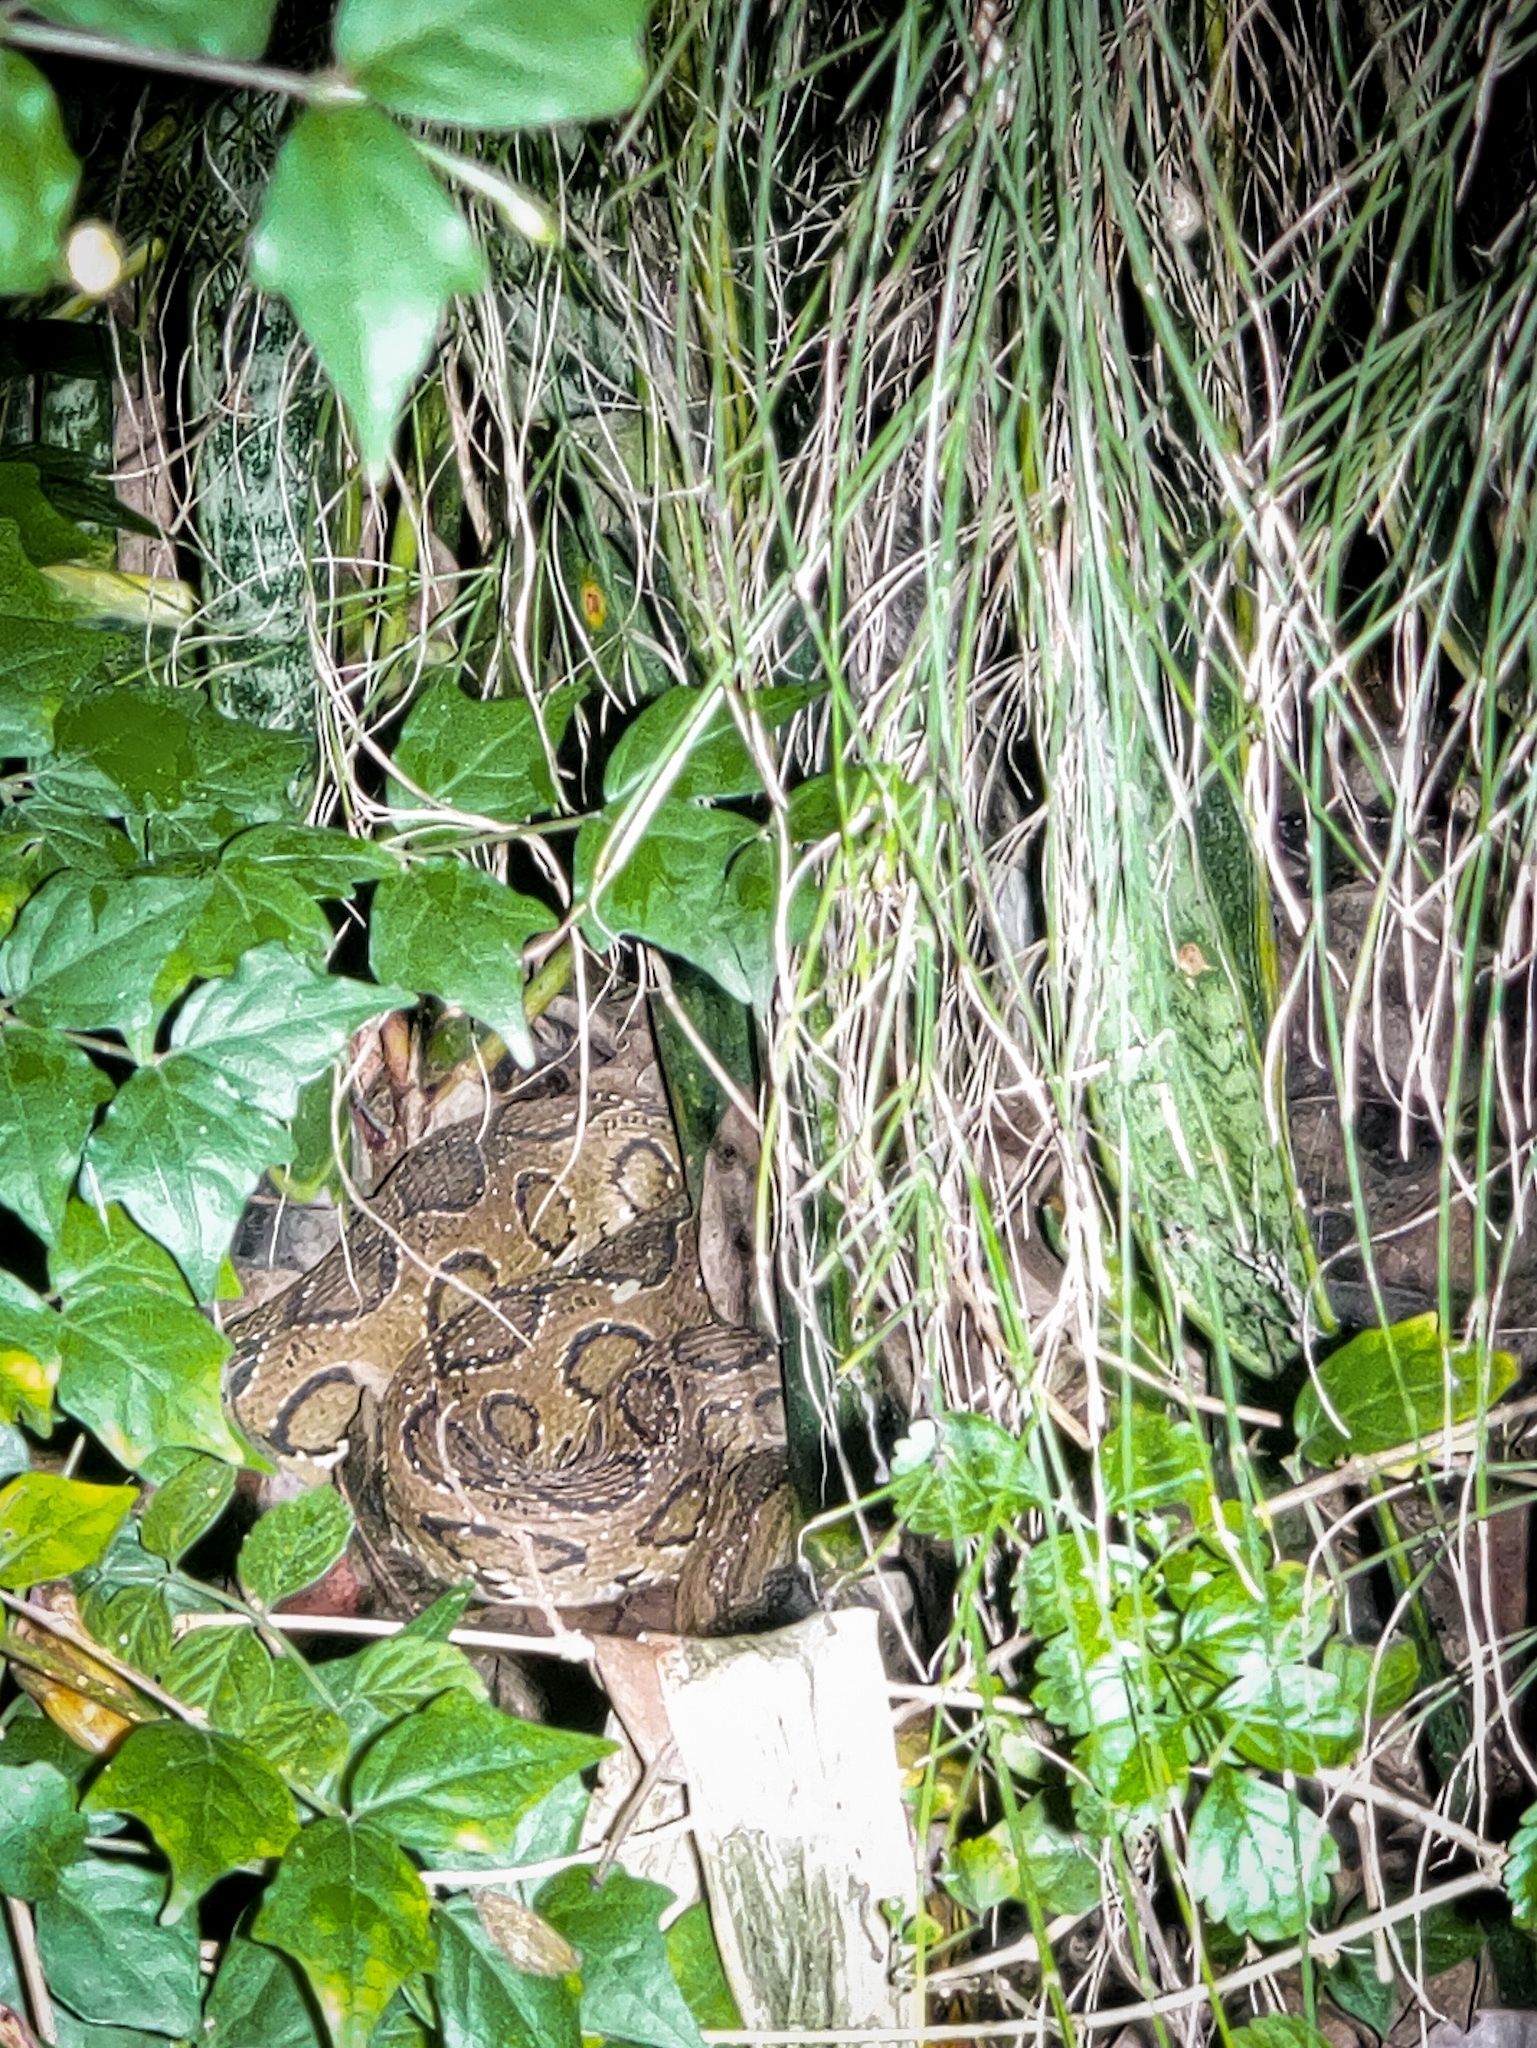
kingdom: Animalia
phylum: Chordata
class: Squamata
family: Viperidae
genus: Daboia
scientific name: Daboia russelii
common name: Western russel’s viper
